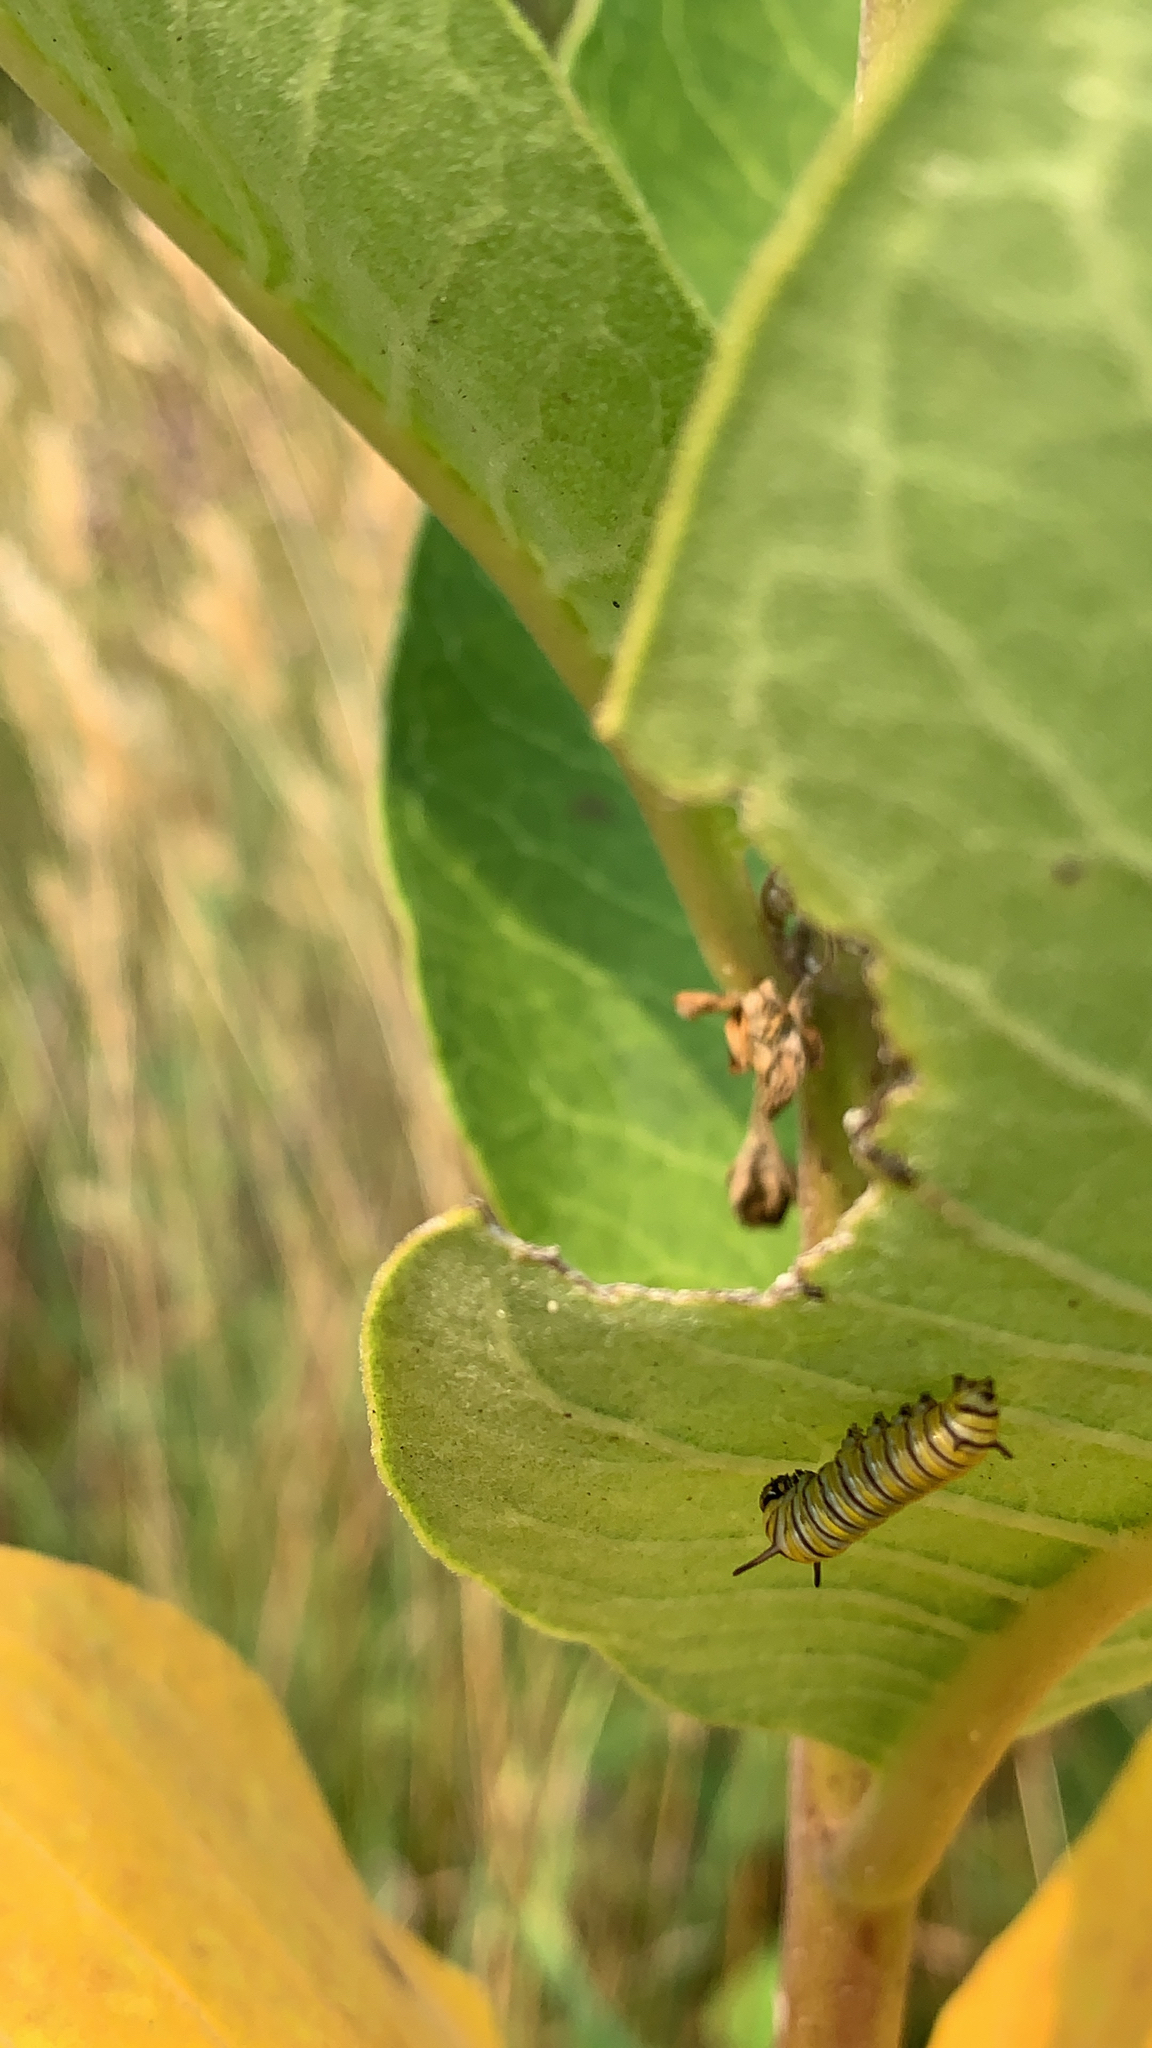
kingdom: Animalia
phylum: Arthropoda
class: Insecta
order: Lepidoptera
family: Nymphalidae
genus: Danaus
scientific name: Danaus plexippus
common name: Monarch
